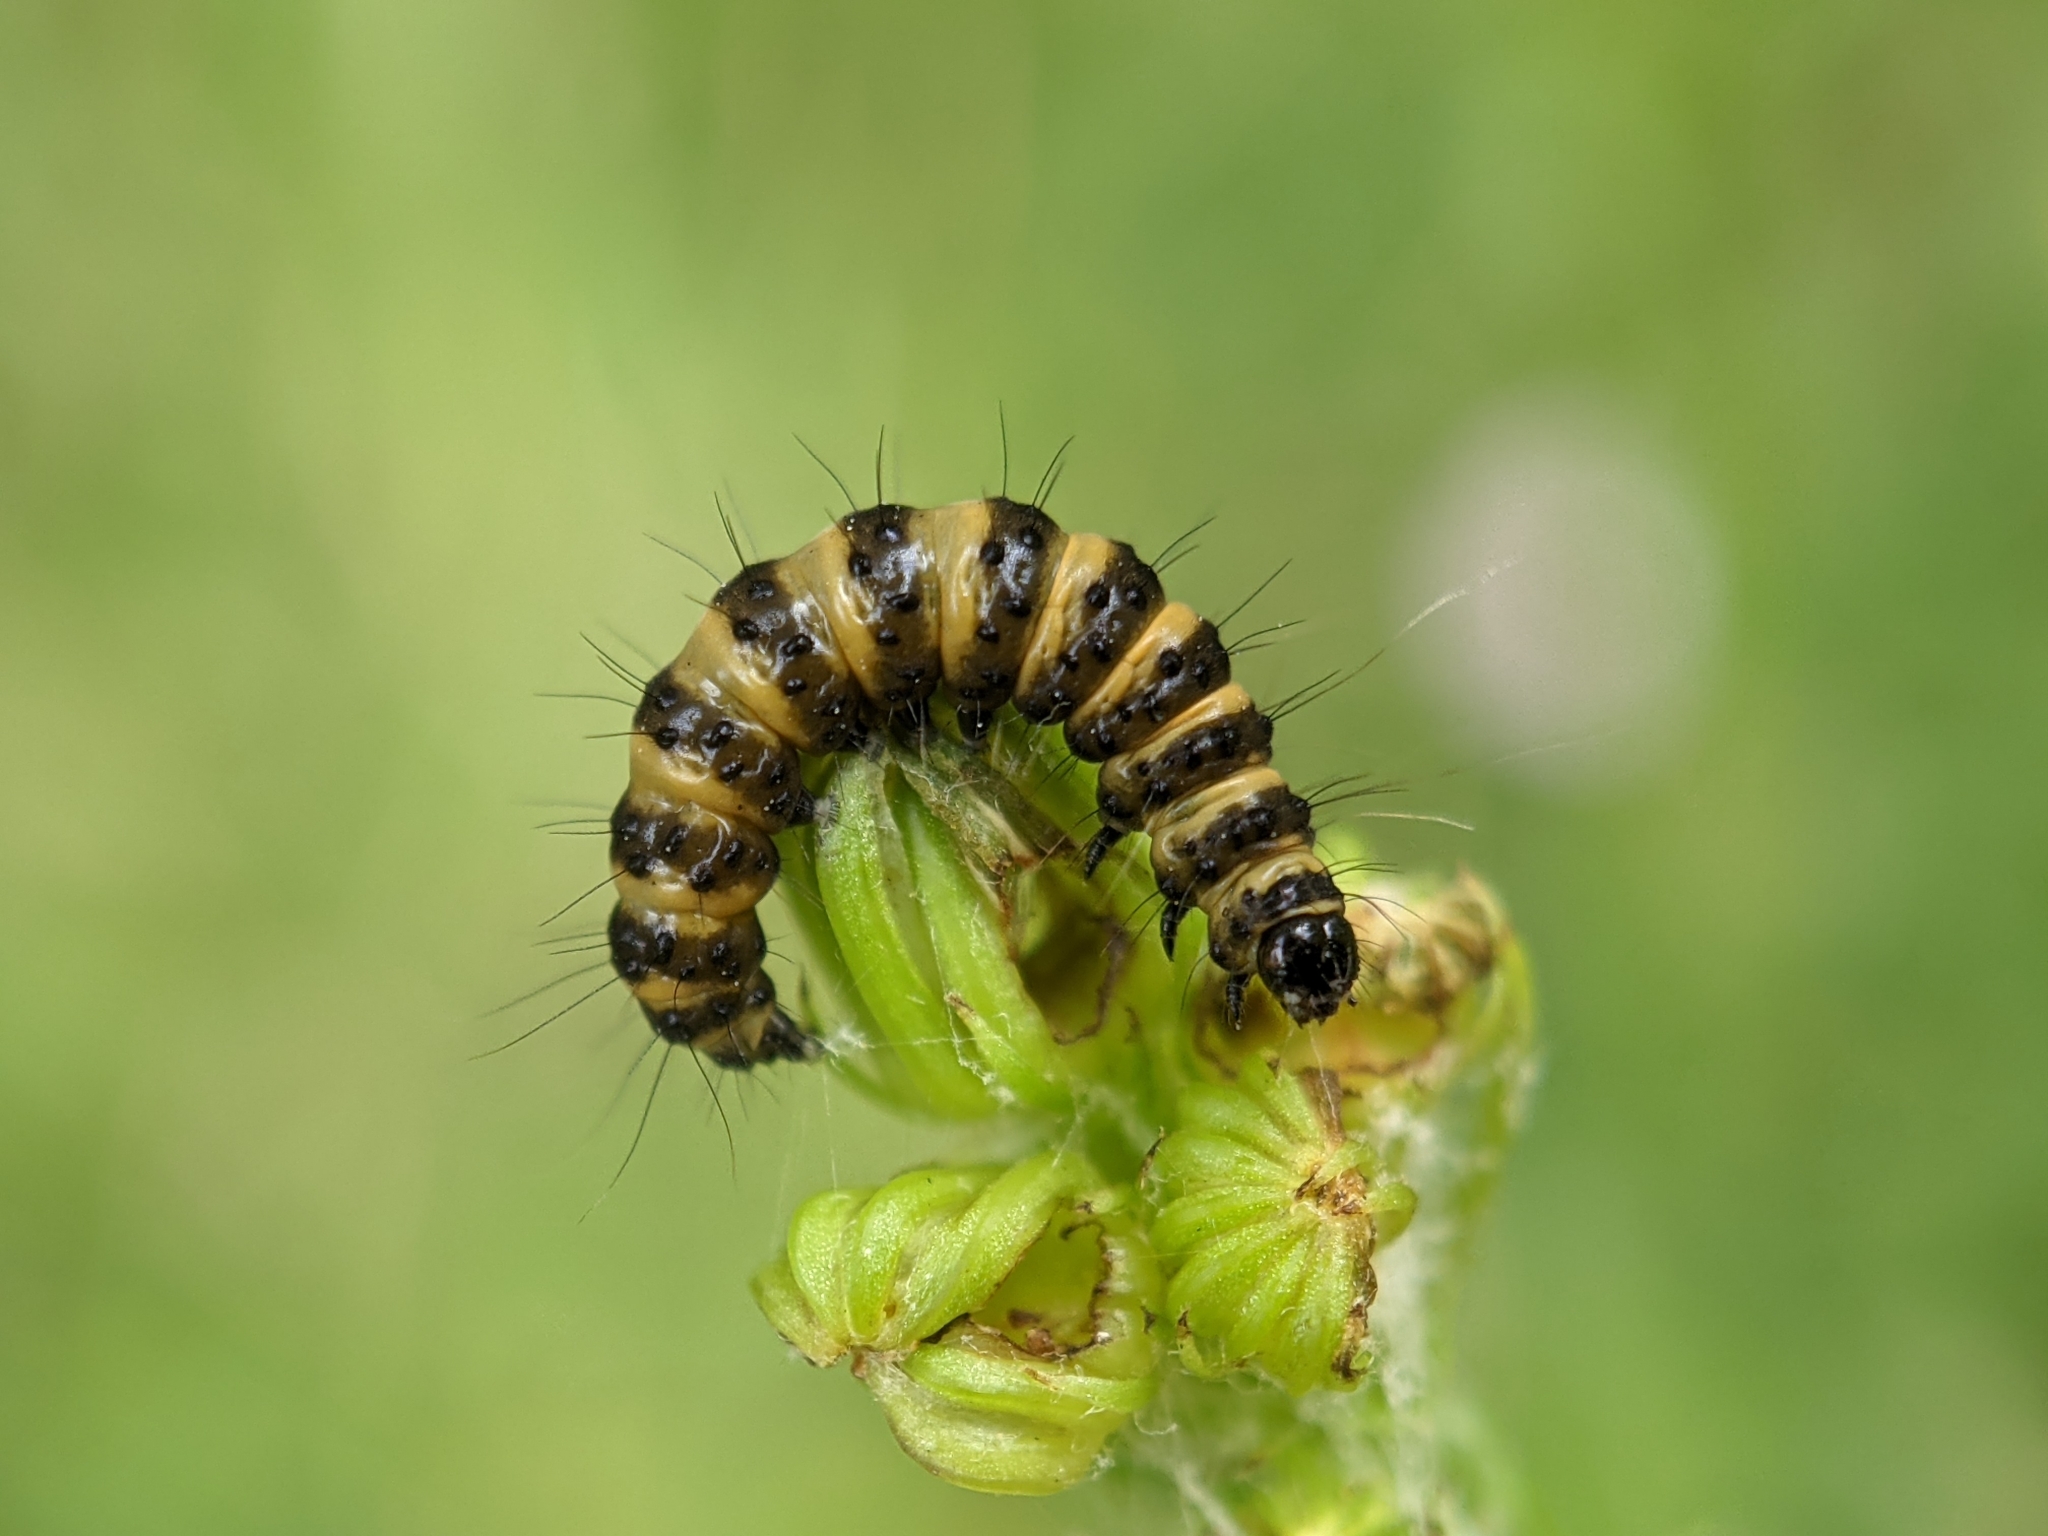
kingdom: Animalia
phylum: Arthropoda
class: Insecta
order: Lepidoptera
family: Erebidae
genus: Tyria
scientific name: Tyria jacobaeae
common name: Cinnabar
